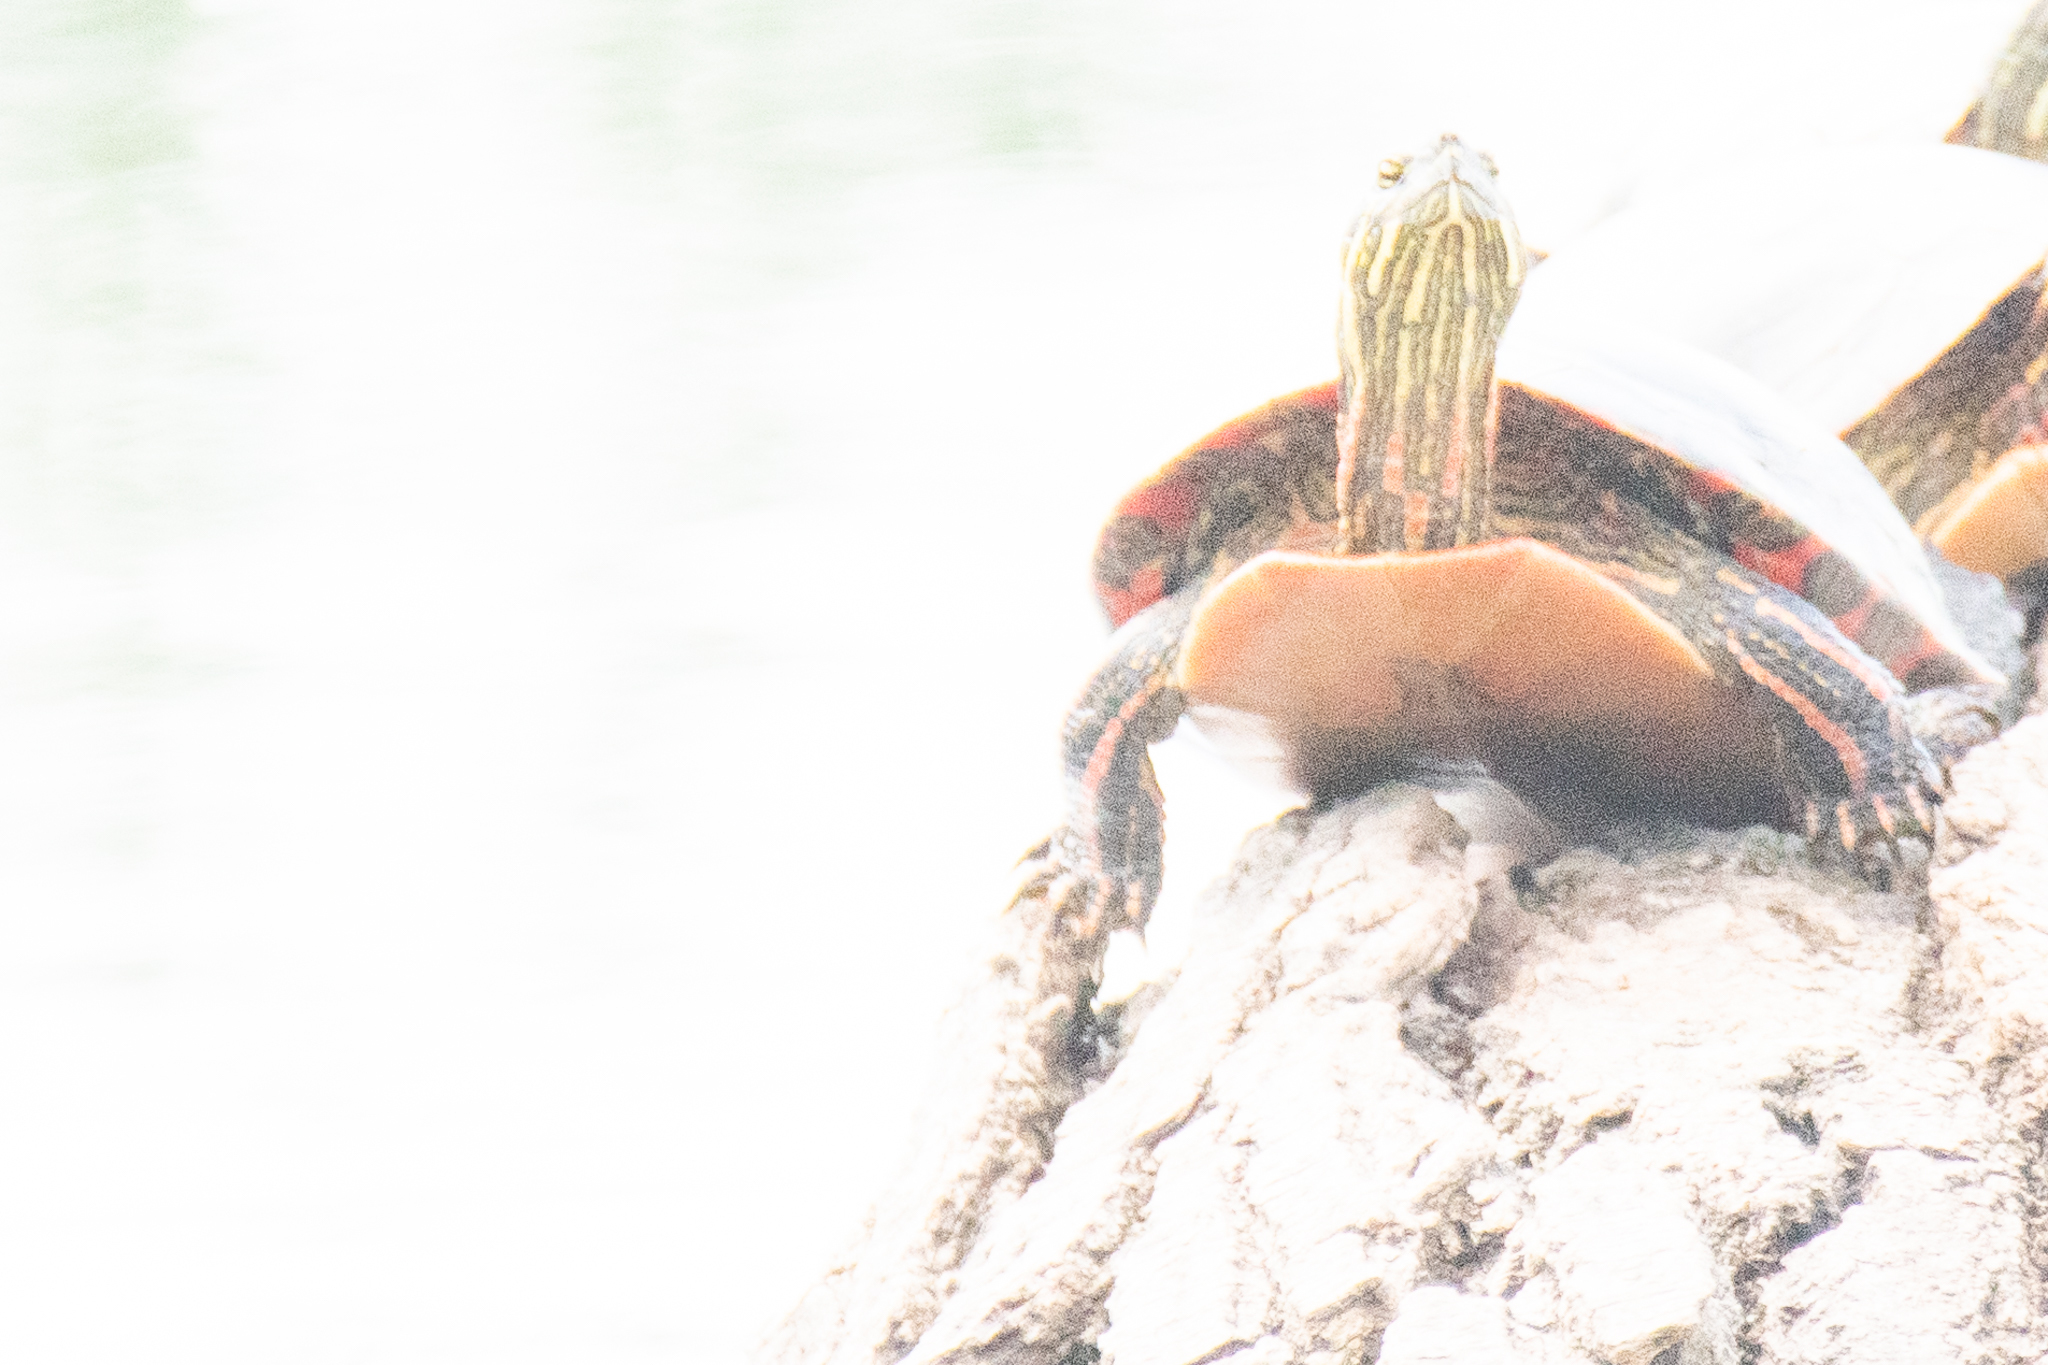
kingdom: Animalia
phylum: Chordata
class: Testudines
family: Emydidae
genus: Chrysemys
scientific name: Chrysemys picta
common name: Painted turtle
